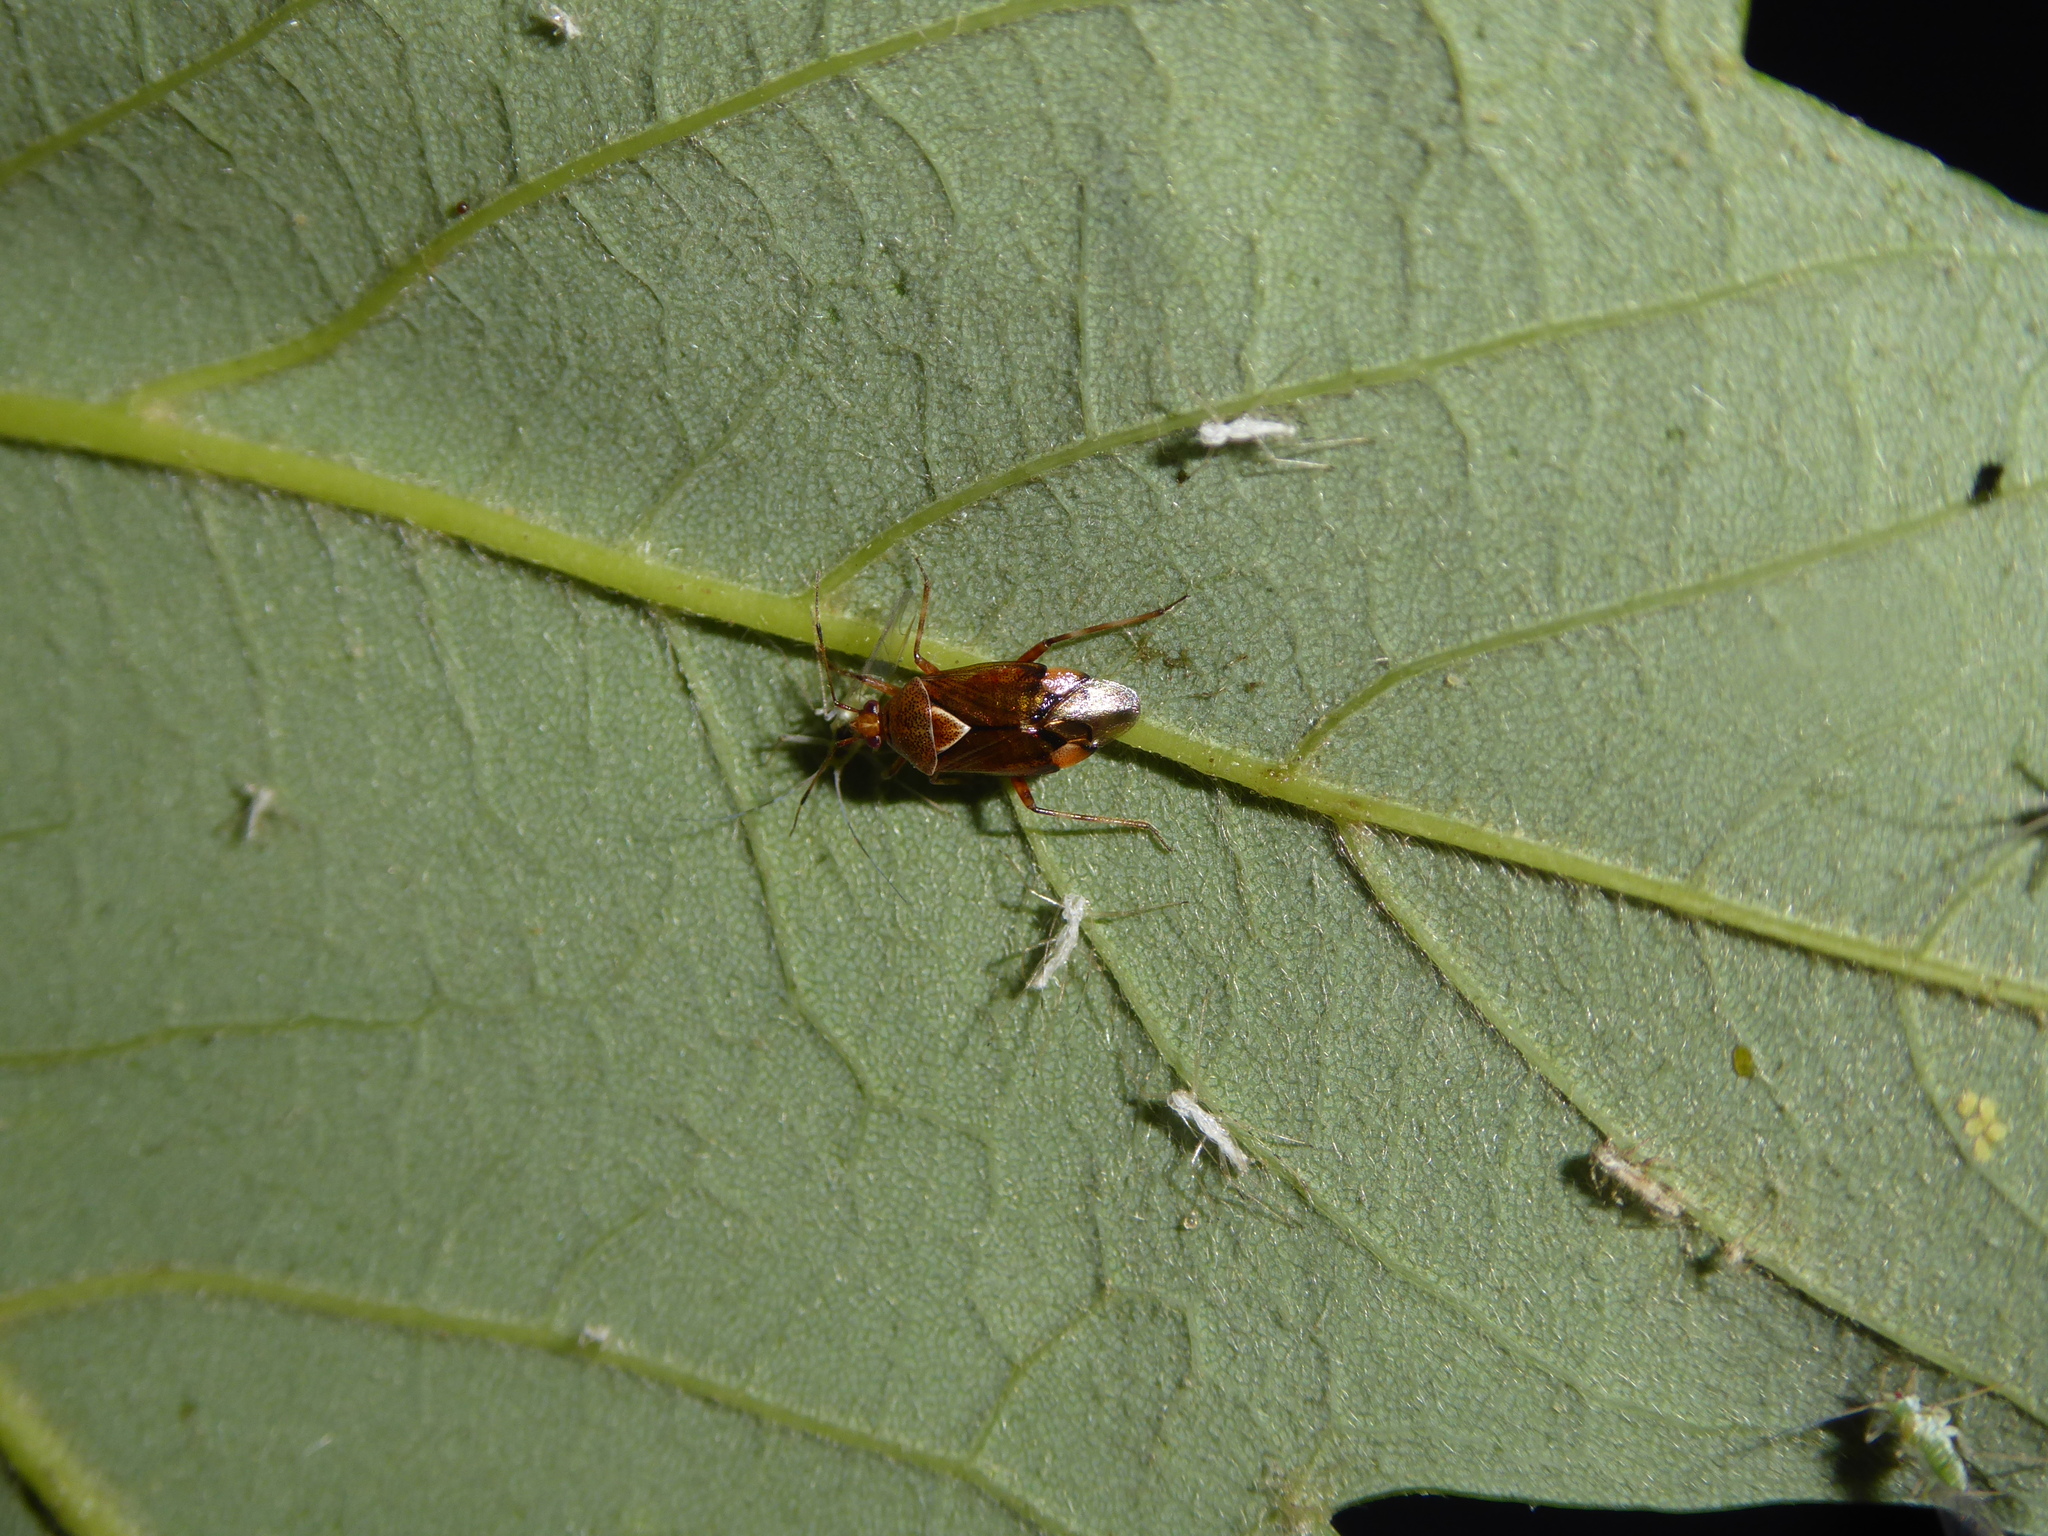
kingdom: Animalia
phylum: Arthropoda
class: Insecta
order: Hemiptera
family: Miridae
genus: Deraeocoris
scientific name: Deraeocoris flavilinea
